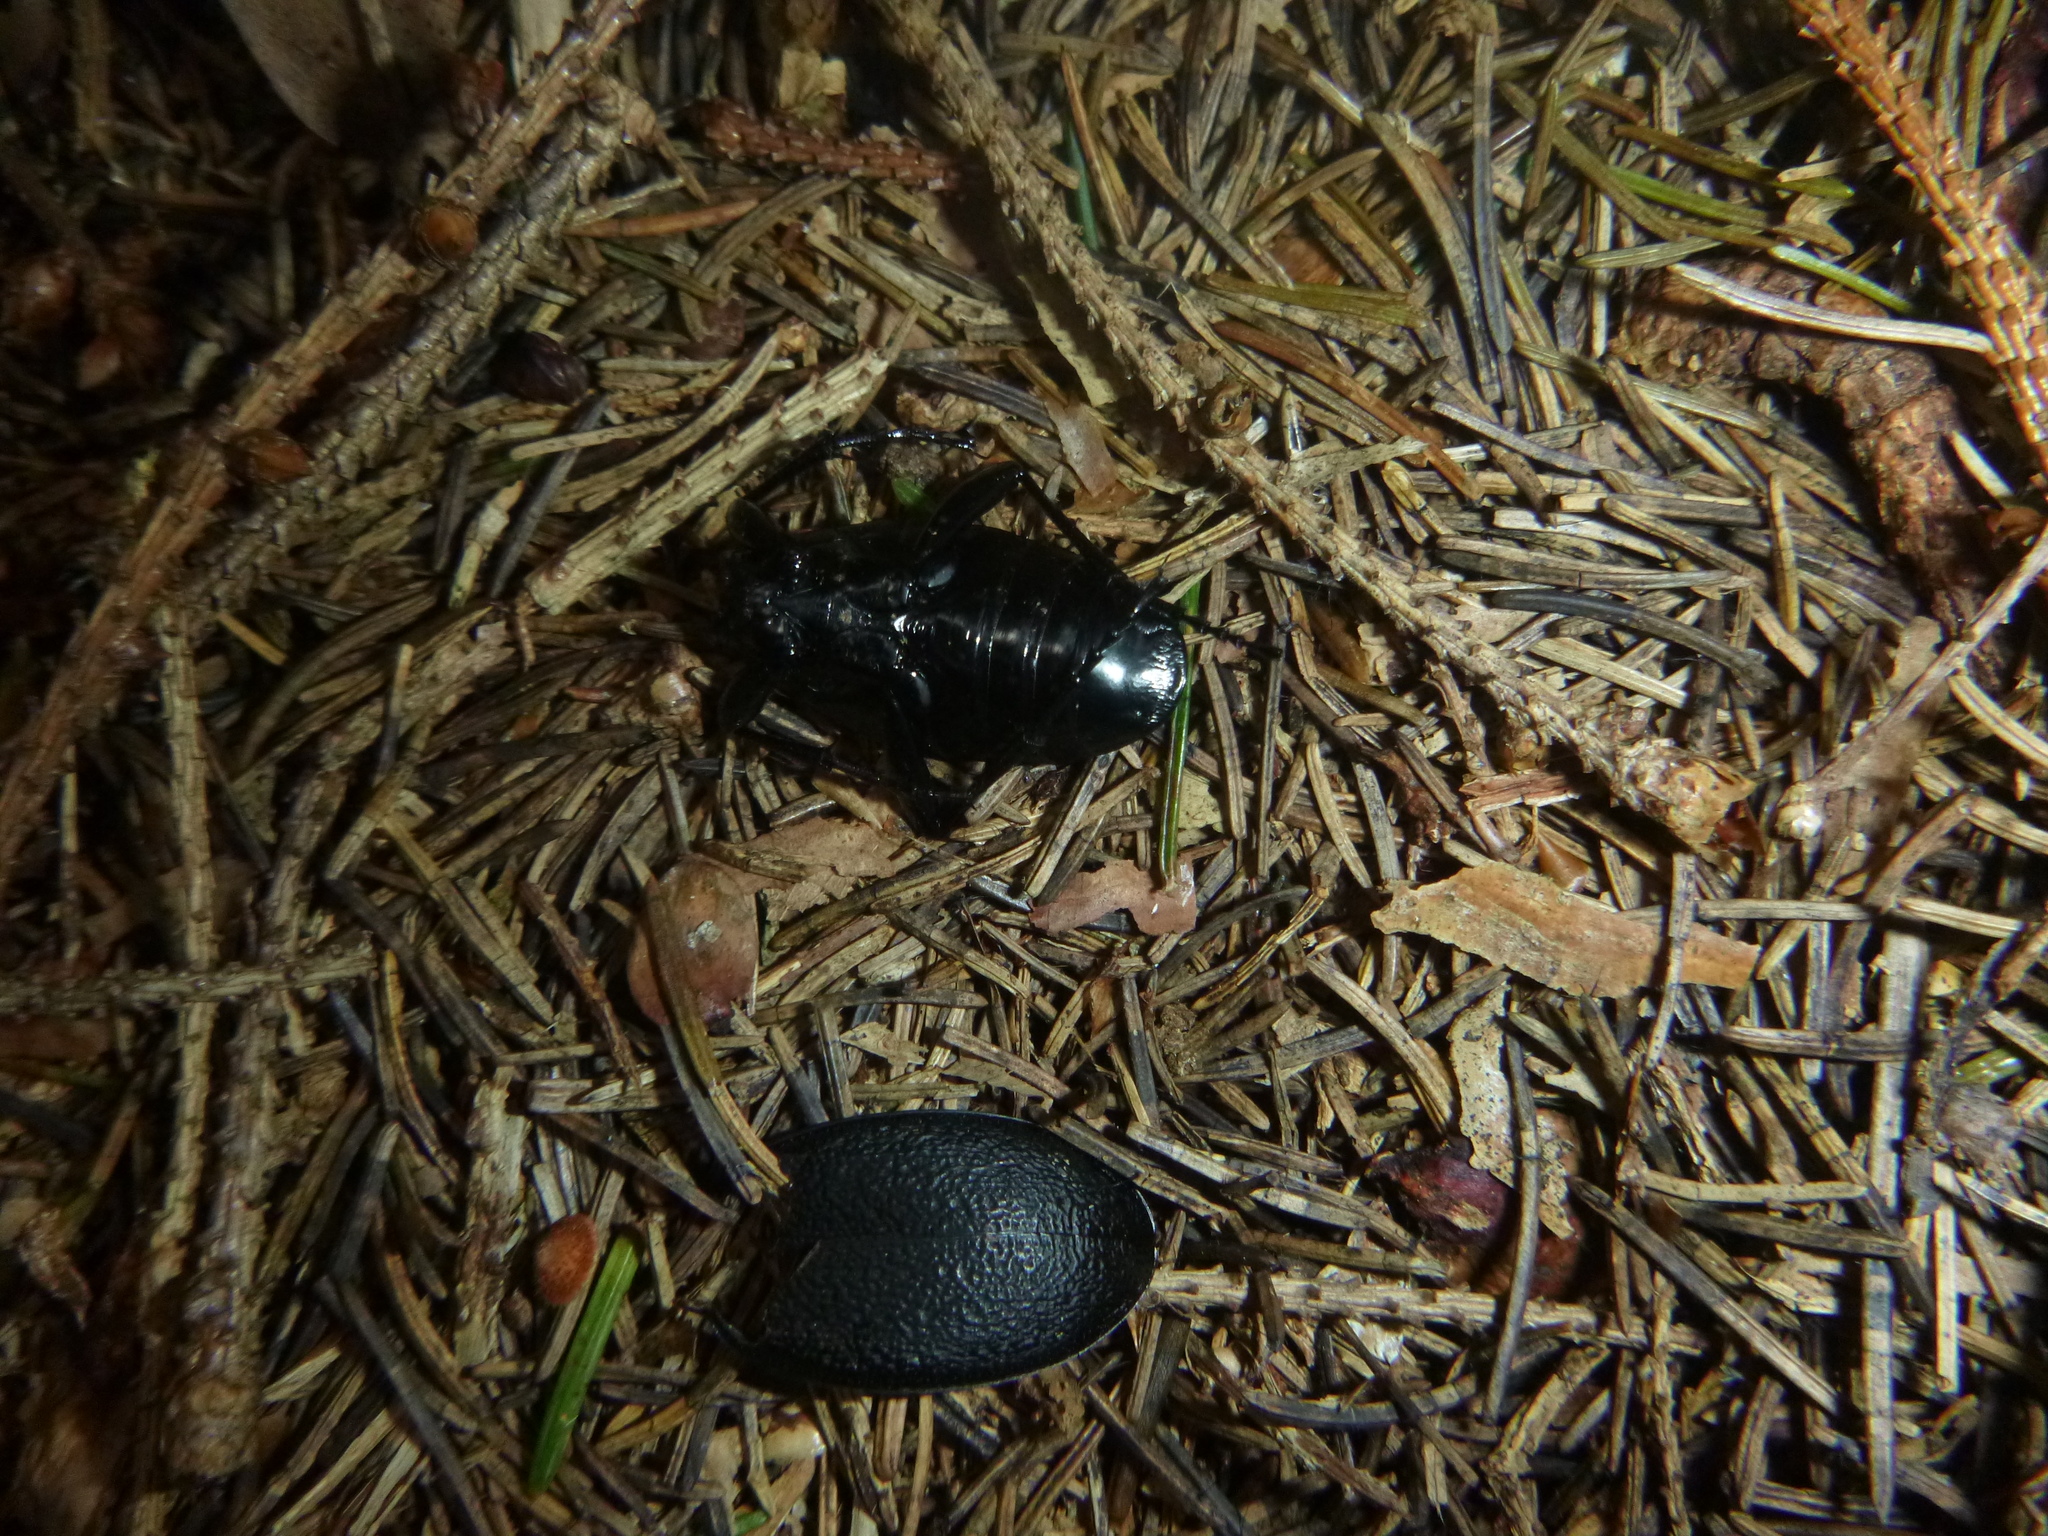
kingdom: Animalia
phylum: Arthropoda
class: Insecta
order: Coleoptera
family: Carabidae
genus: Carabus
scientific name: Carabus coriaceus
